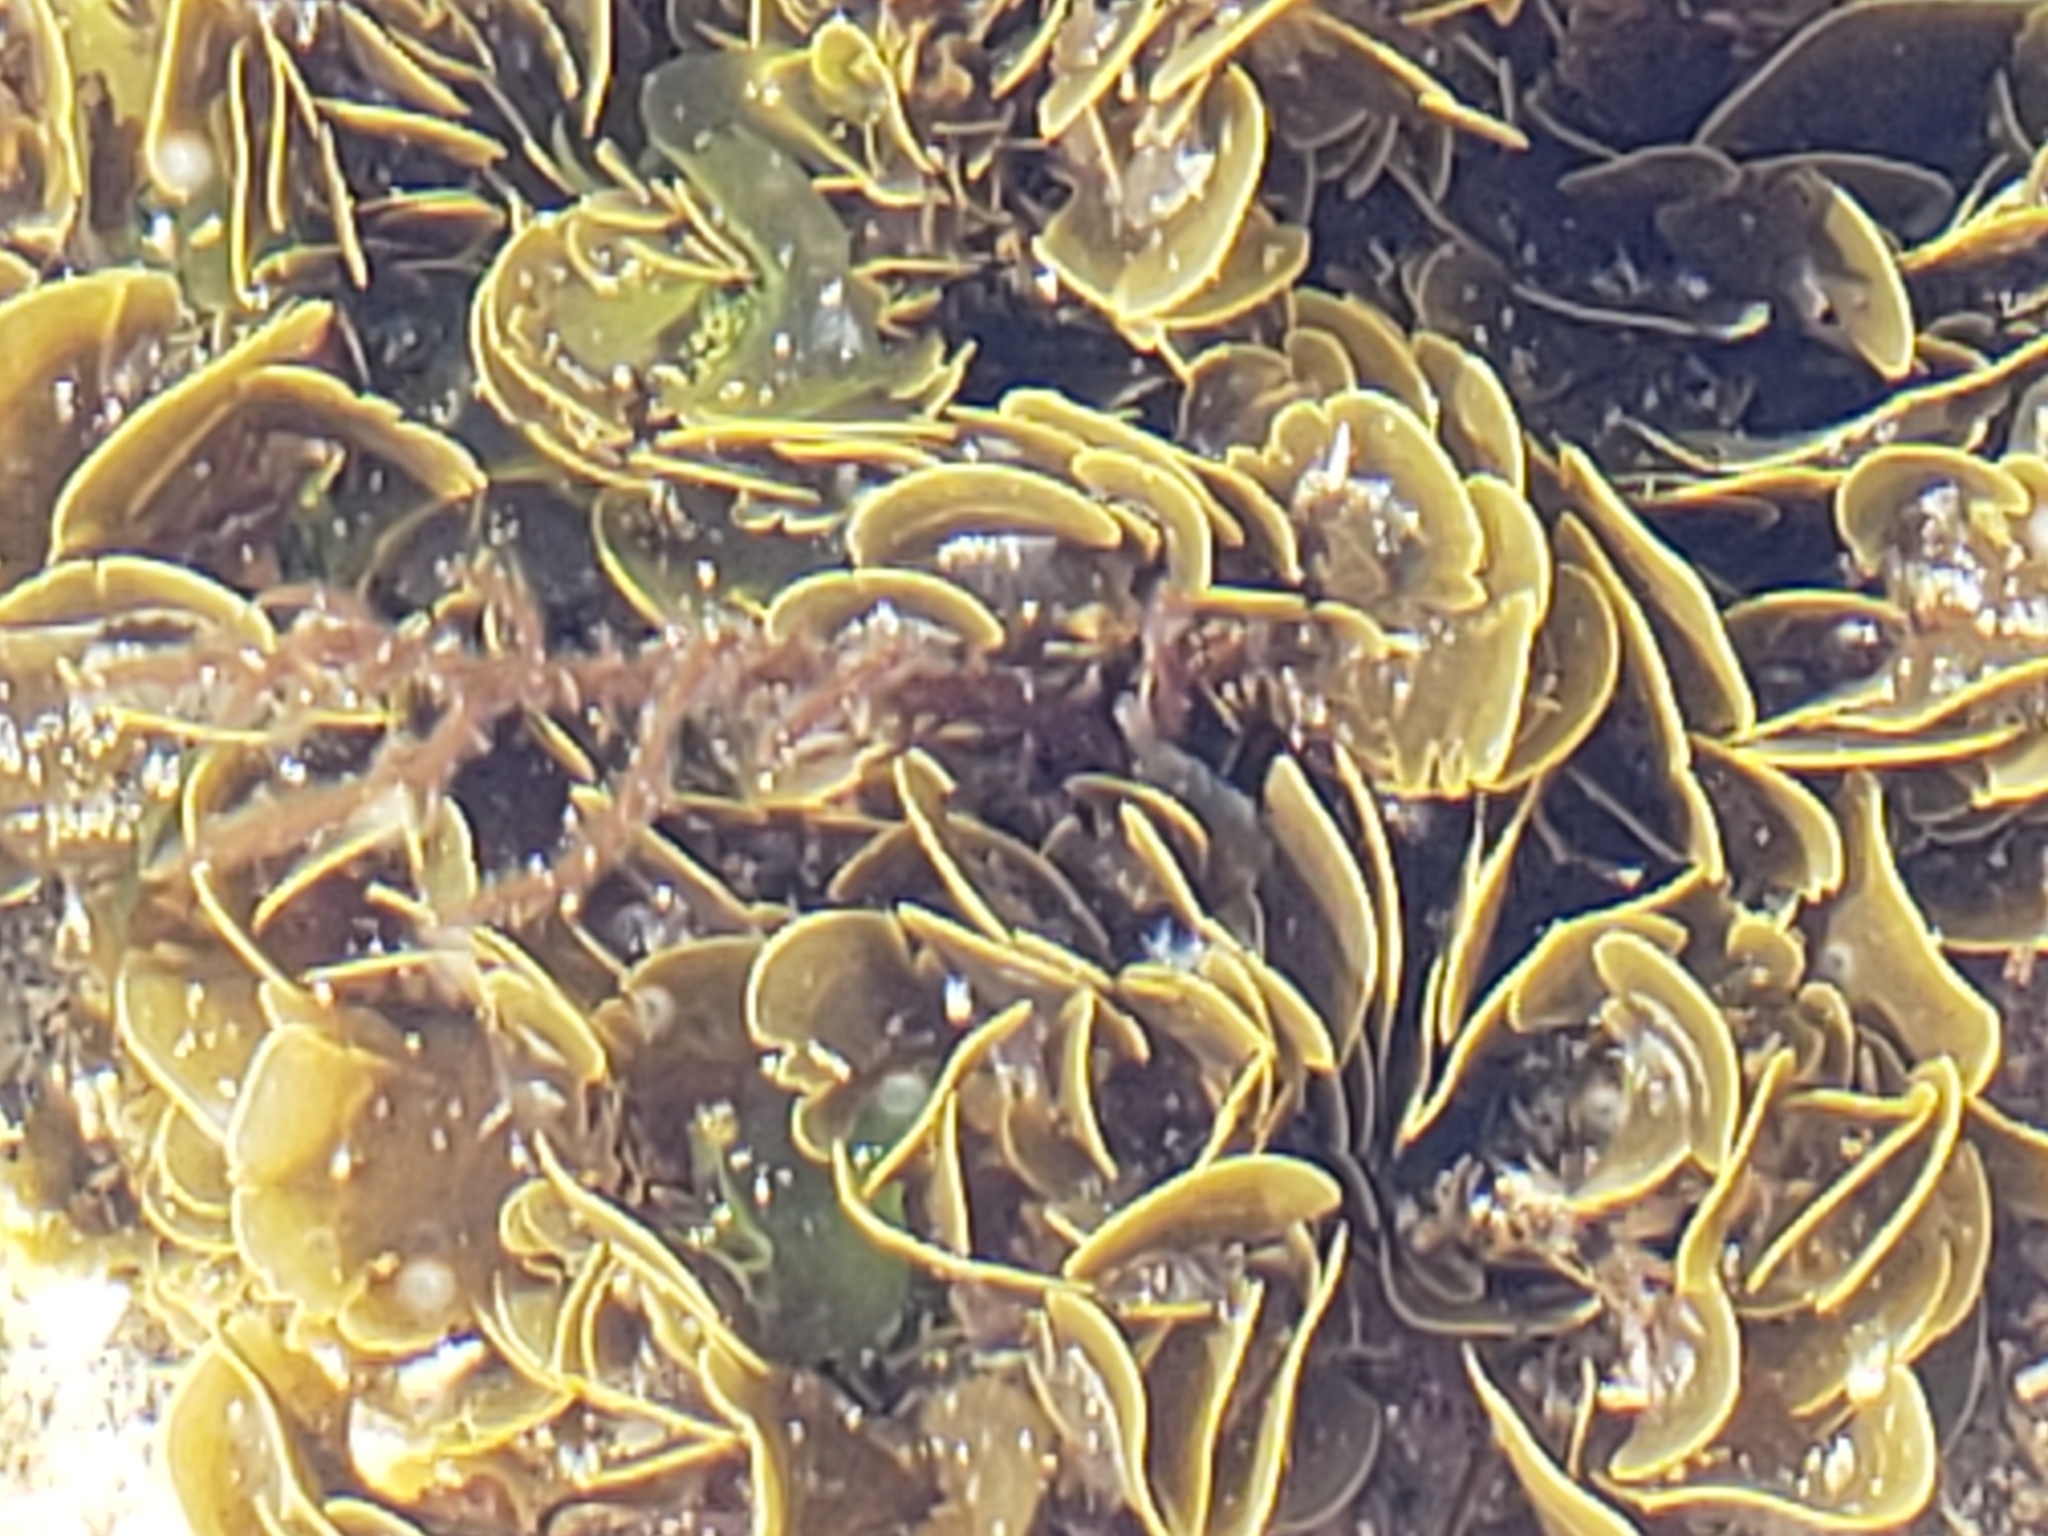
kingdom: Chromista
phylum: Ochrophyta
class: Phaeophyceae
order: Dictyotales
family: Dictyotaceae
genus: Zonaria
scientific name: Zonaria farlowii
